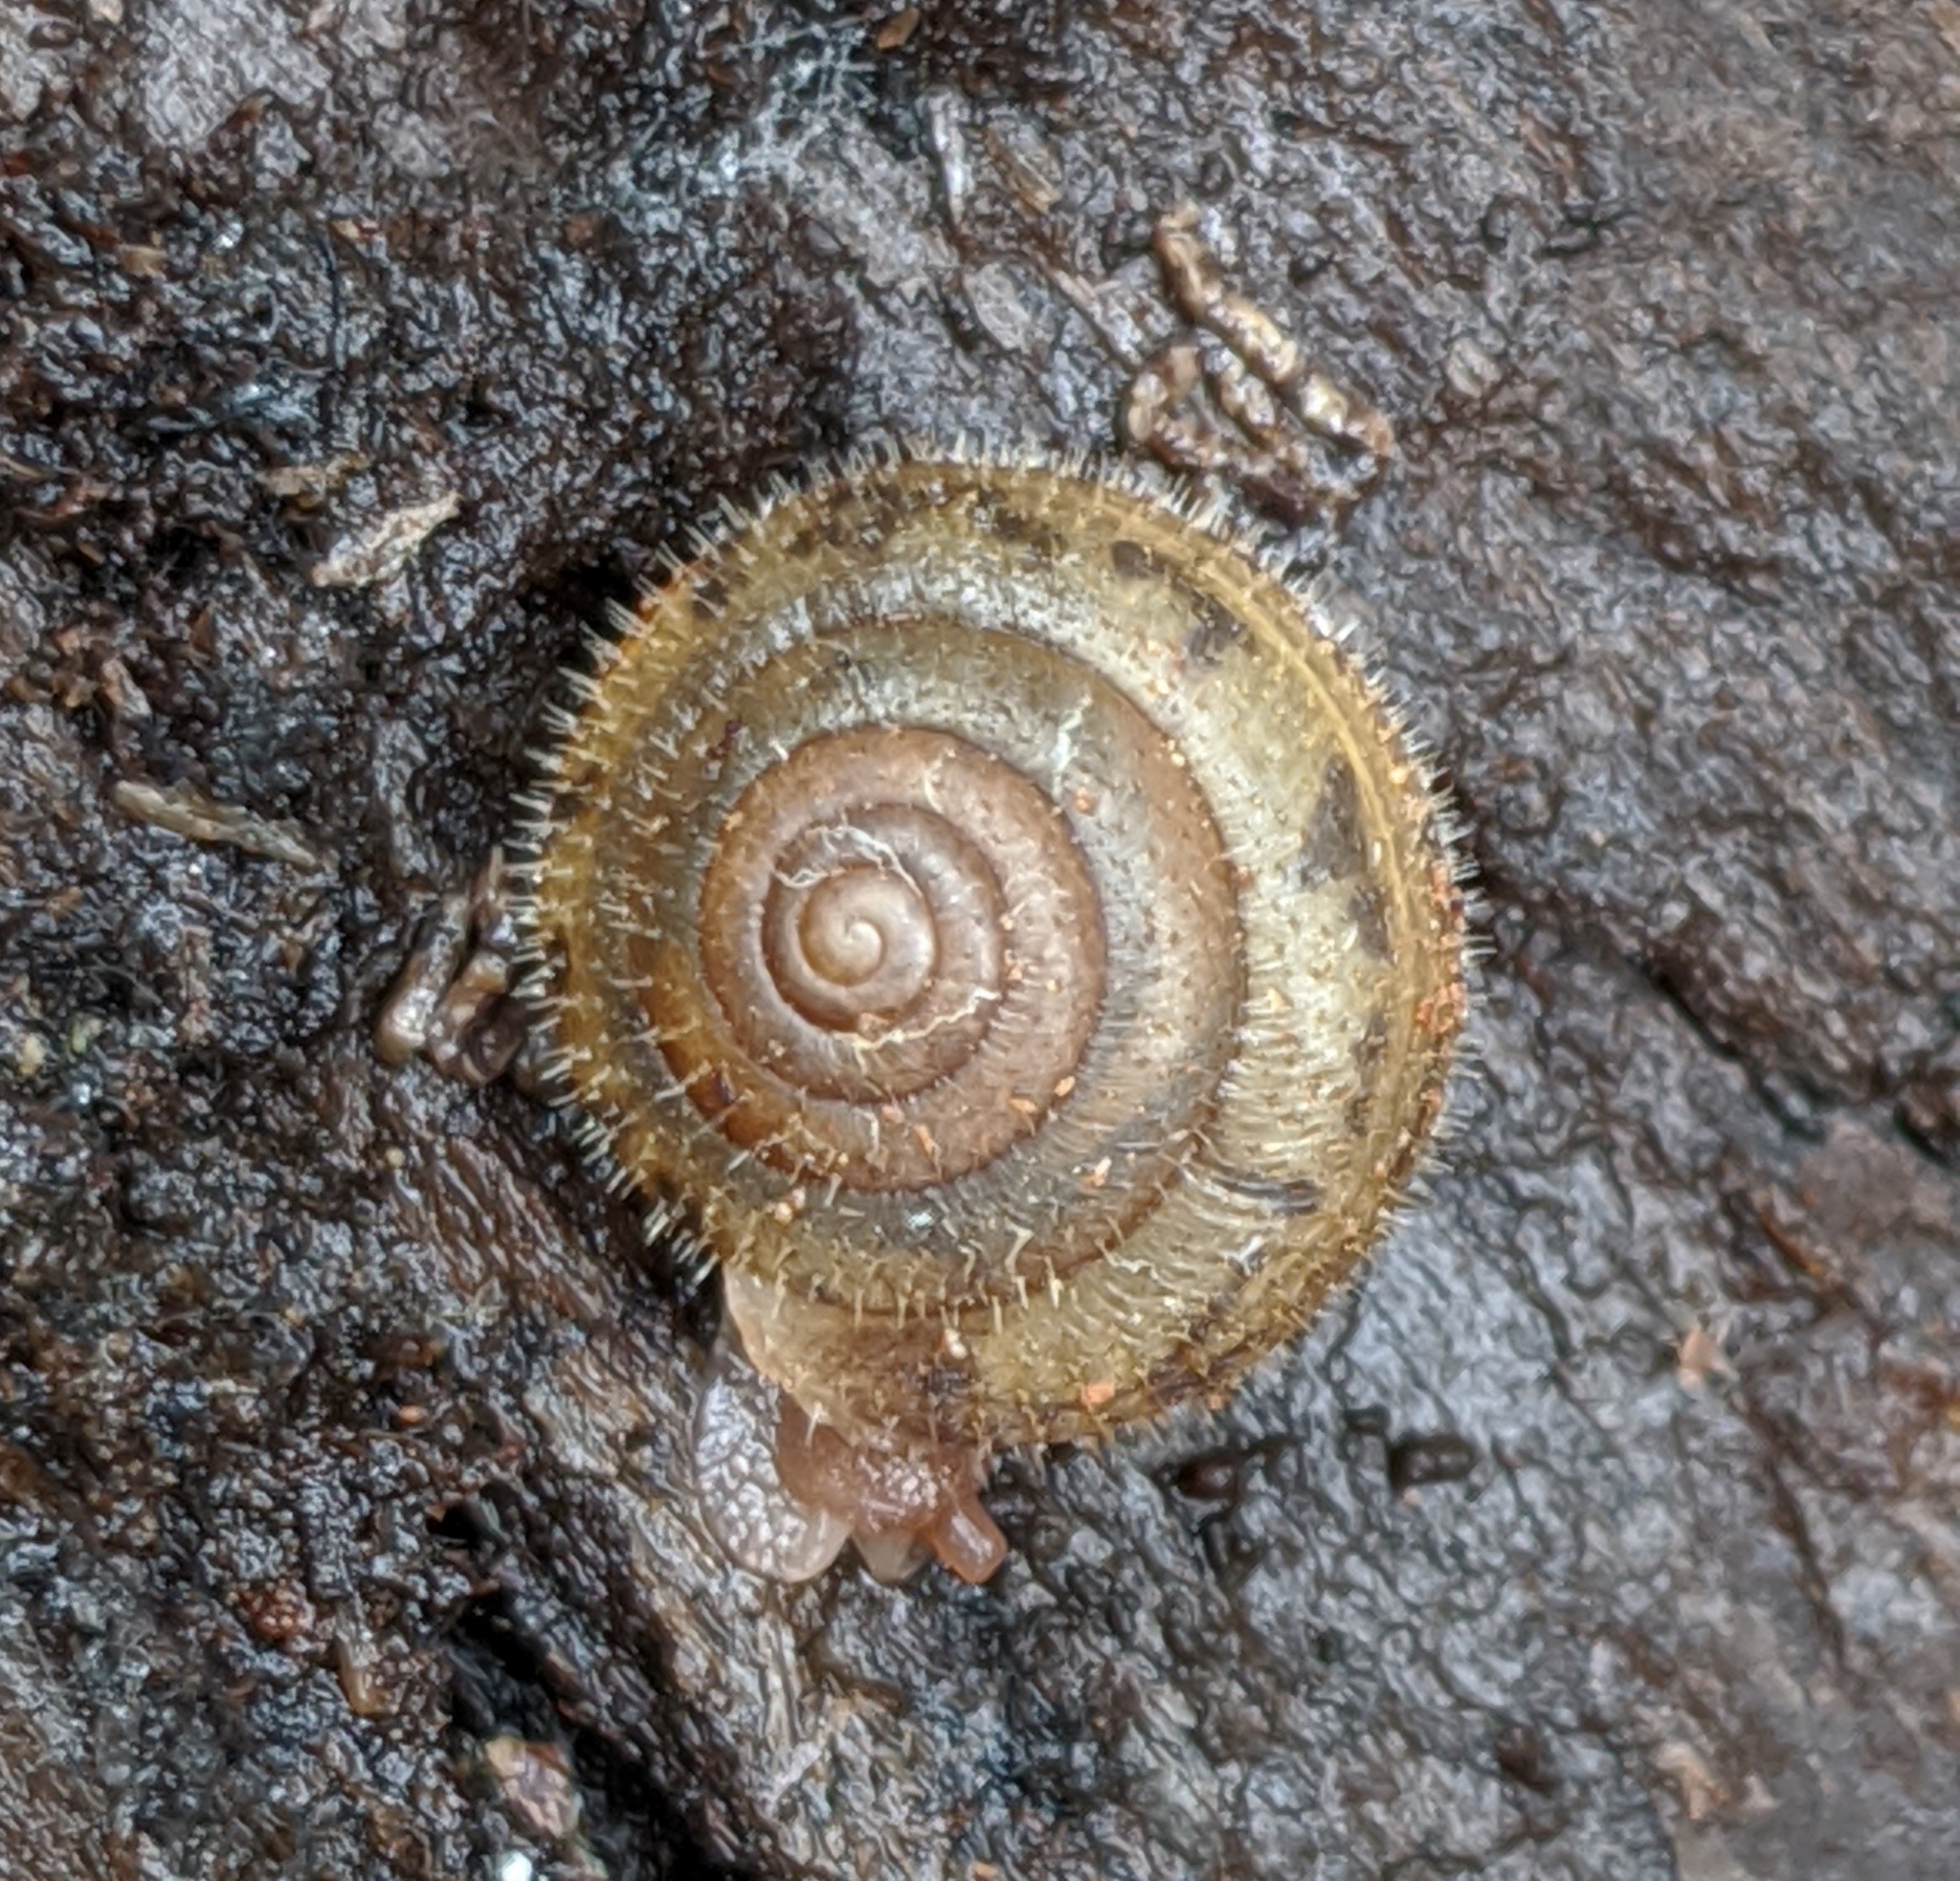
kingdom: Animalia
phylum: Mollusca
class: Gastropoda
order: Stylommatophora
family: Polygyridae
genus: Vespericola
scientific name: Vespericola columbianus
